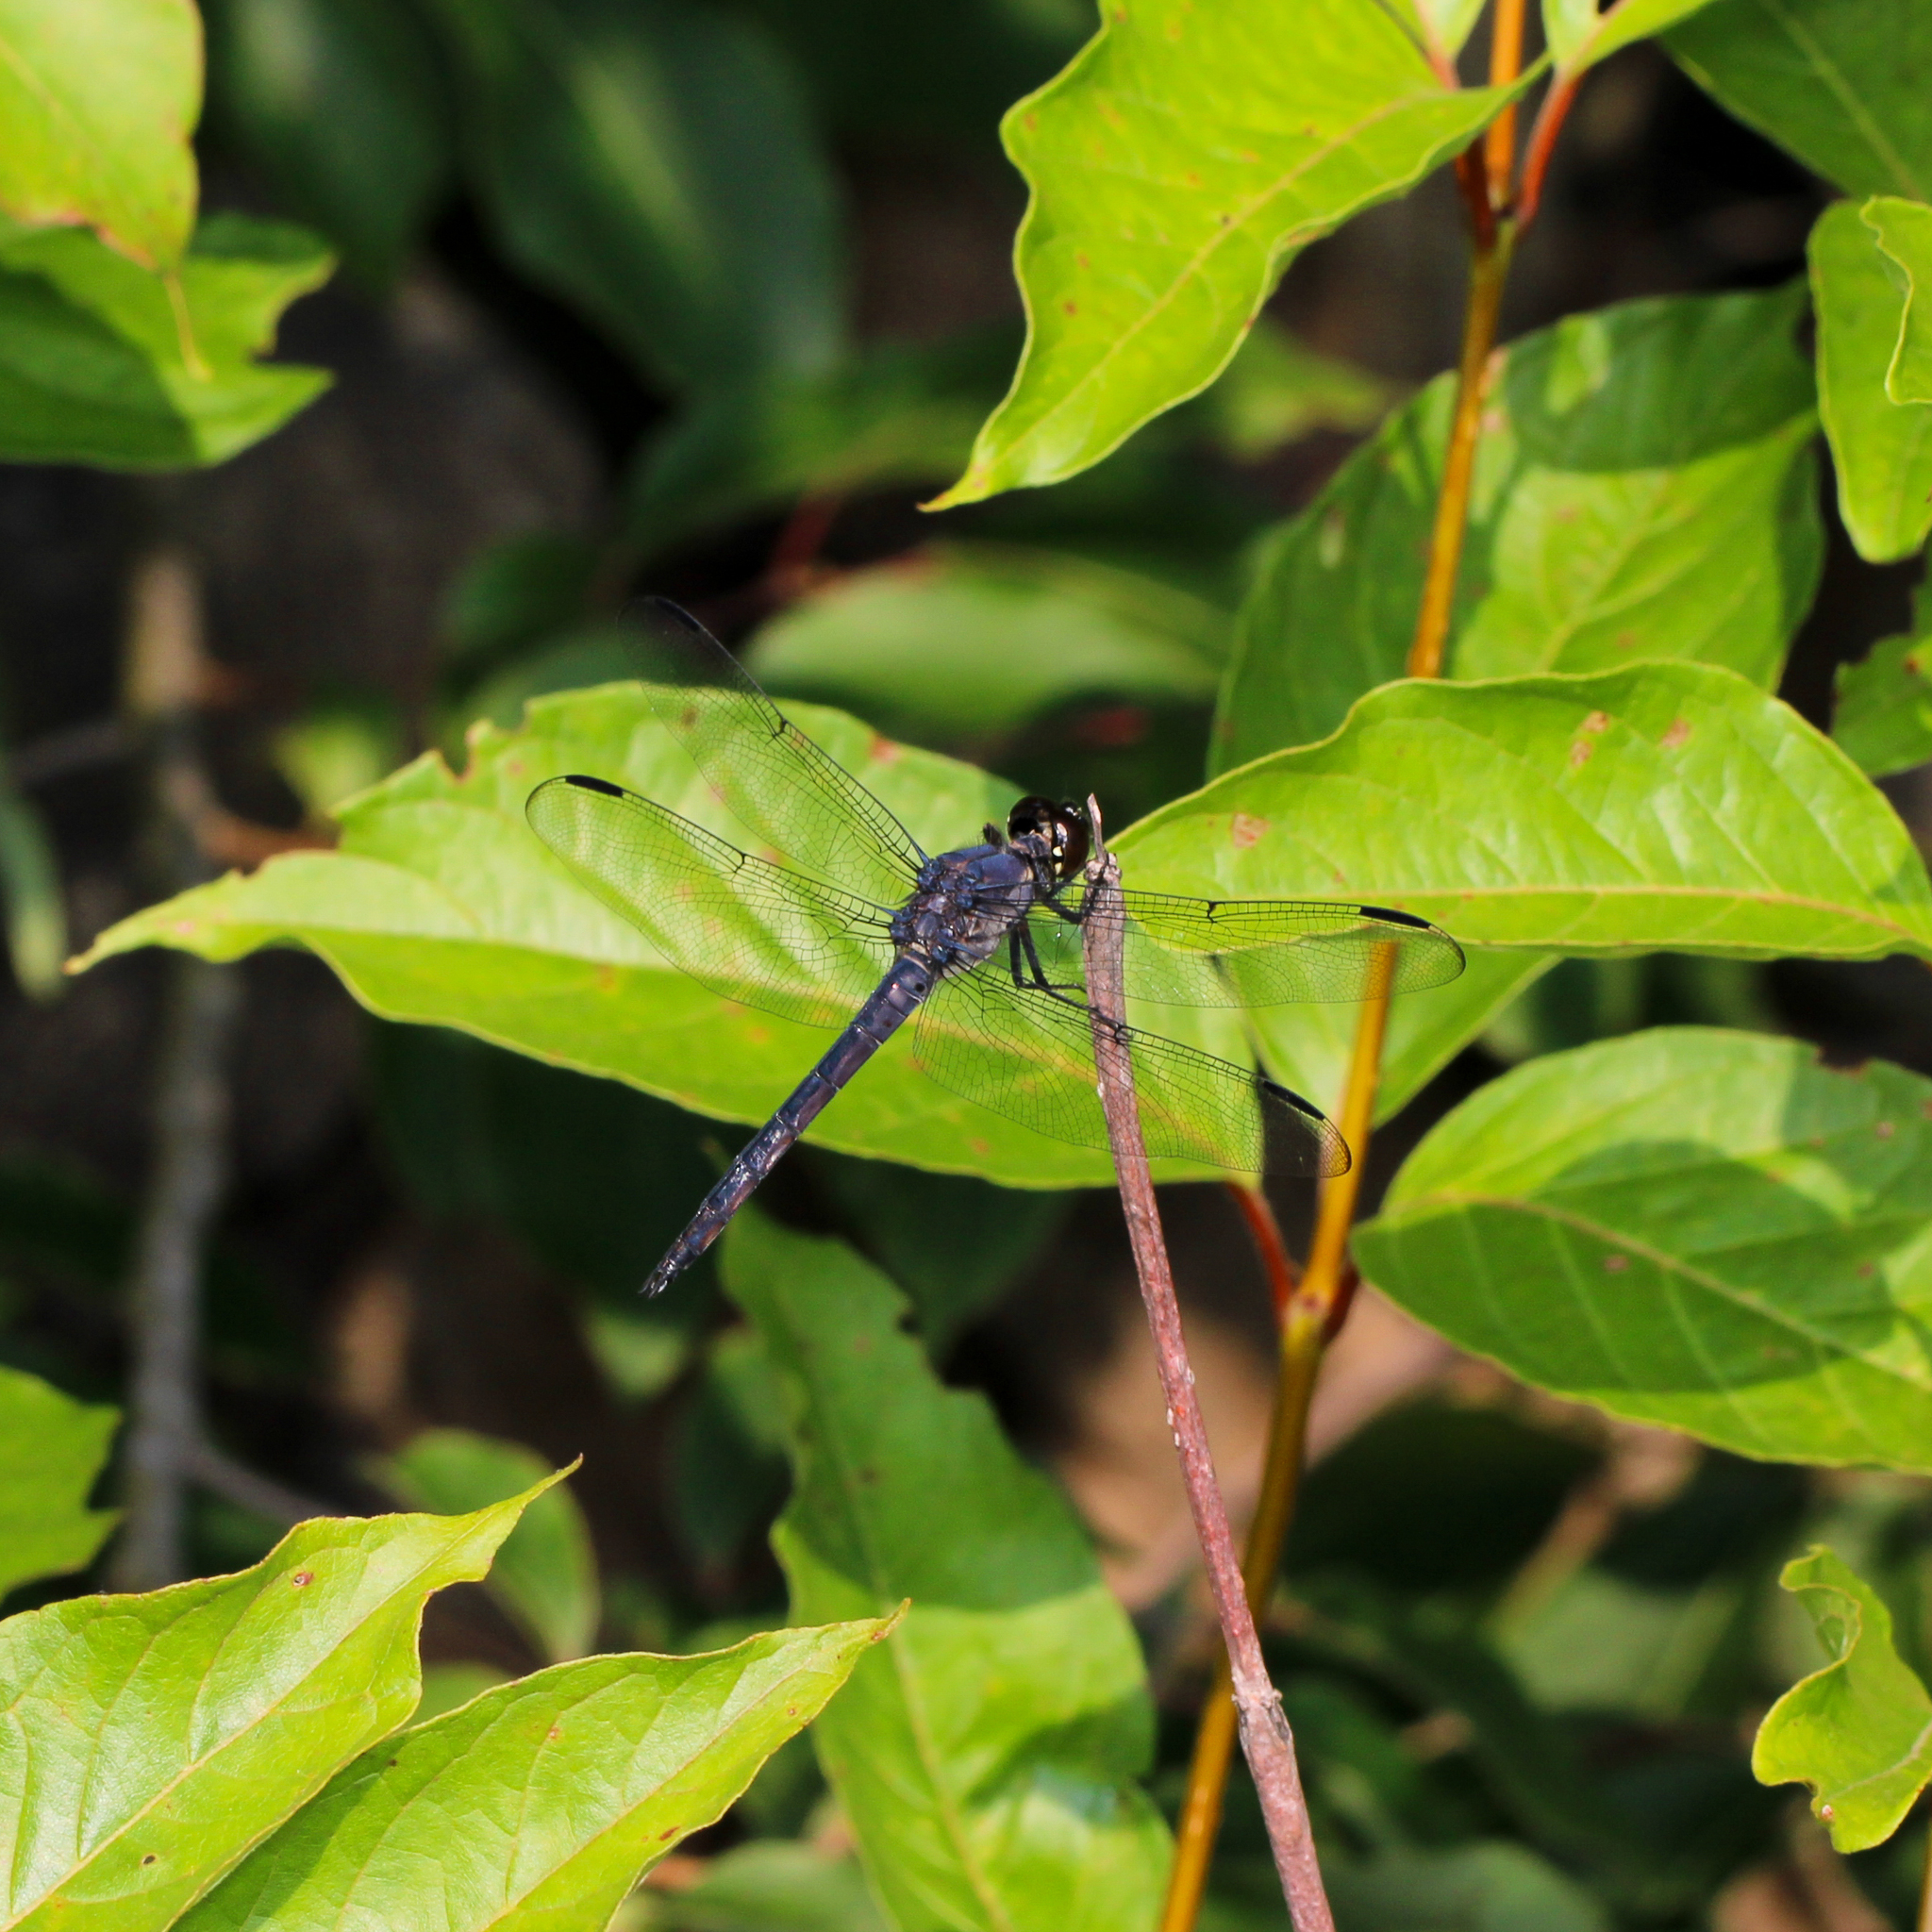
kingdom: Animalia
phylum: Arthropoda
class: Insecta
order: Odonata
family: Libellulidae
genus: Libellula
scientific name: Libellula incesta
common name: Slaty skimmer
